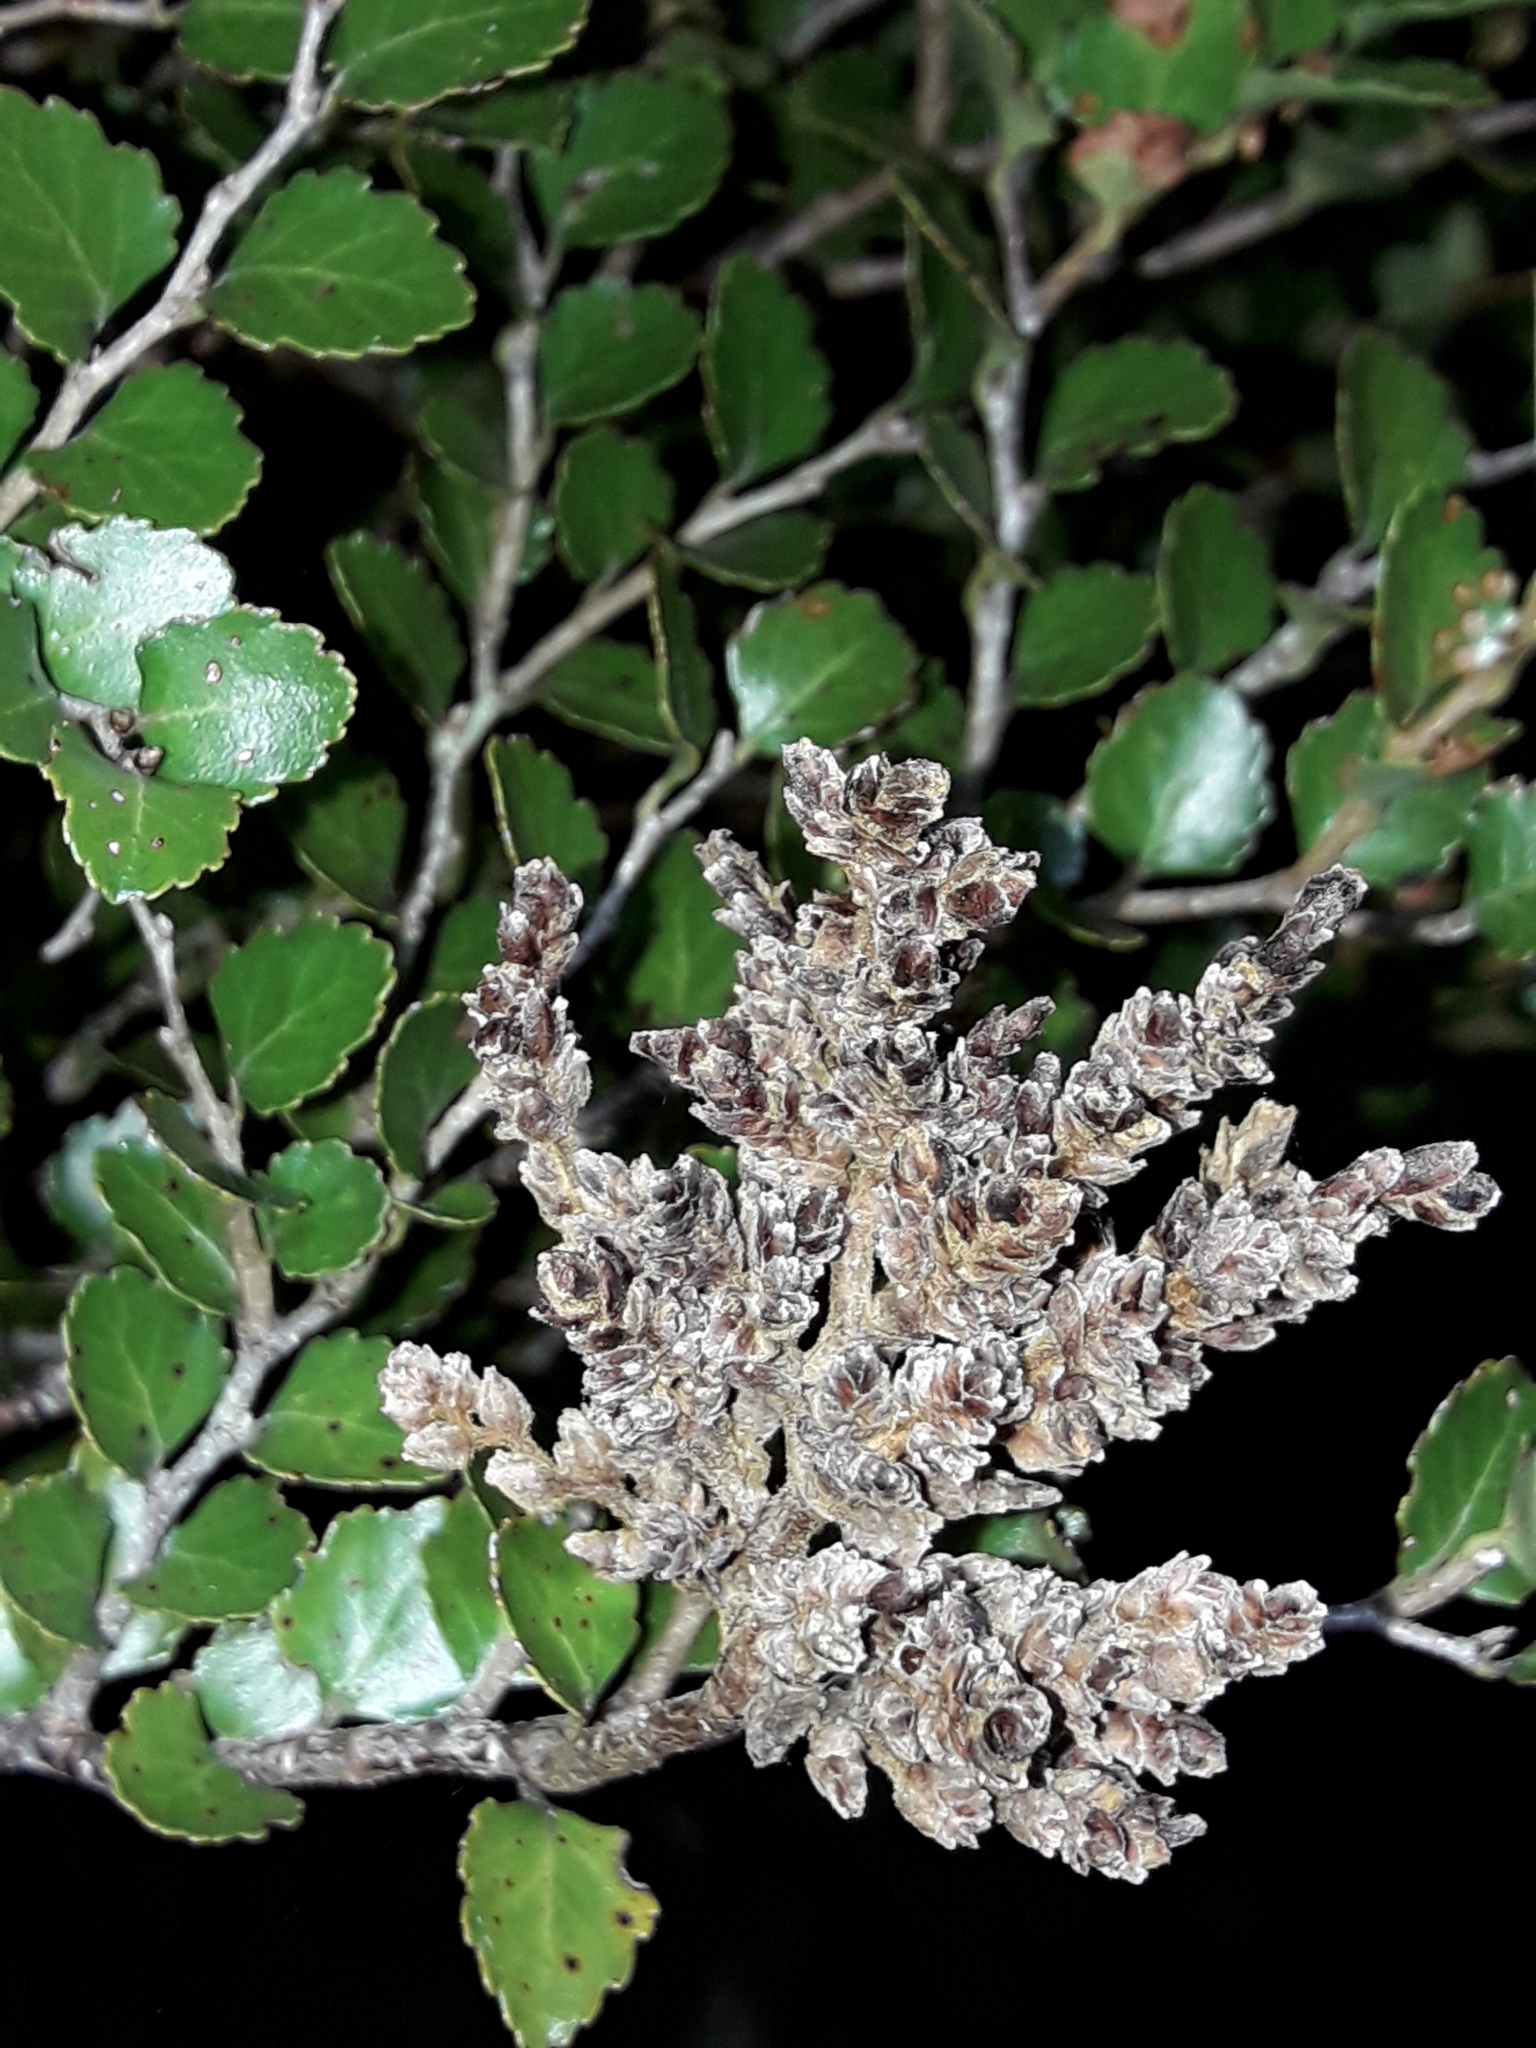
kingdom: Animalia
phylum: Arthropoda
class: Arachnida
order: Trombidiformes
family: Eriophyidae
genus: Cymoptus
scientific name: Cymoptus
